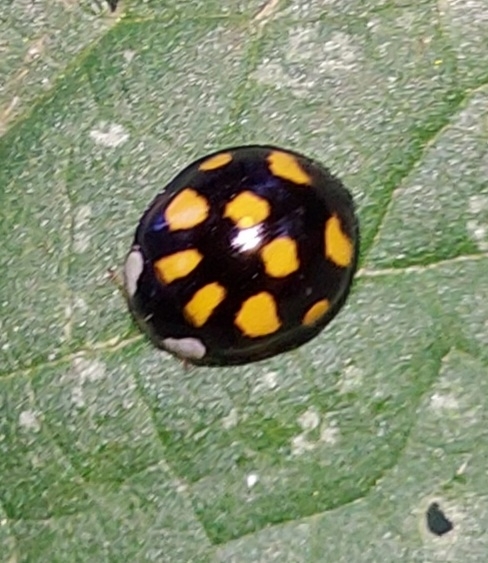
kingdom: Animalia
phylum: Arthropoda
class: Insecta
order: Coleoptera
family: Coccinellidae
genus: Harmonia
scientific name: Harmonia axyridis
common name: Harlequin ladybird
